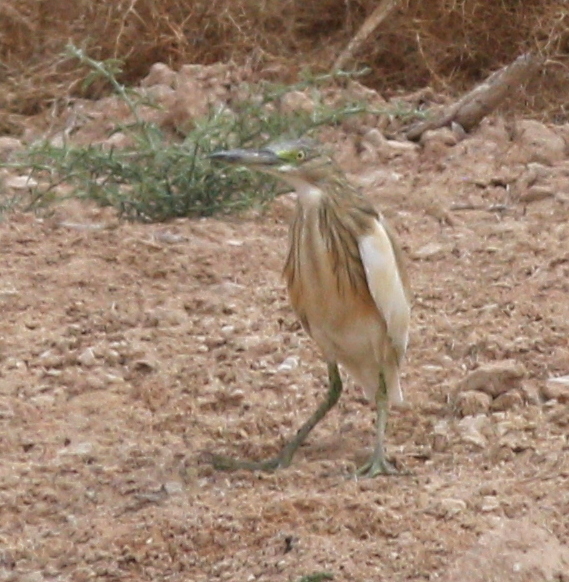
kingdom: Animalia
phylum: Chordata
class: Aves
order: Pelecaniformes
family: Ardeidae
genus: Ardeola
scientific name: Ardeola ralloides
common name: Squacco heron
